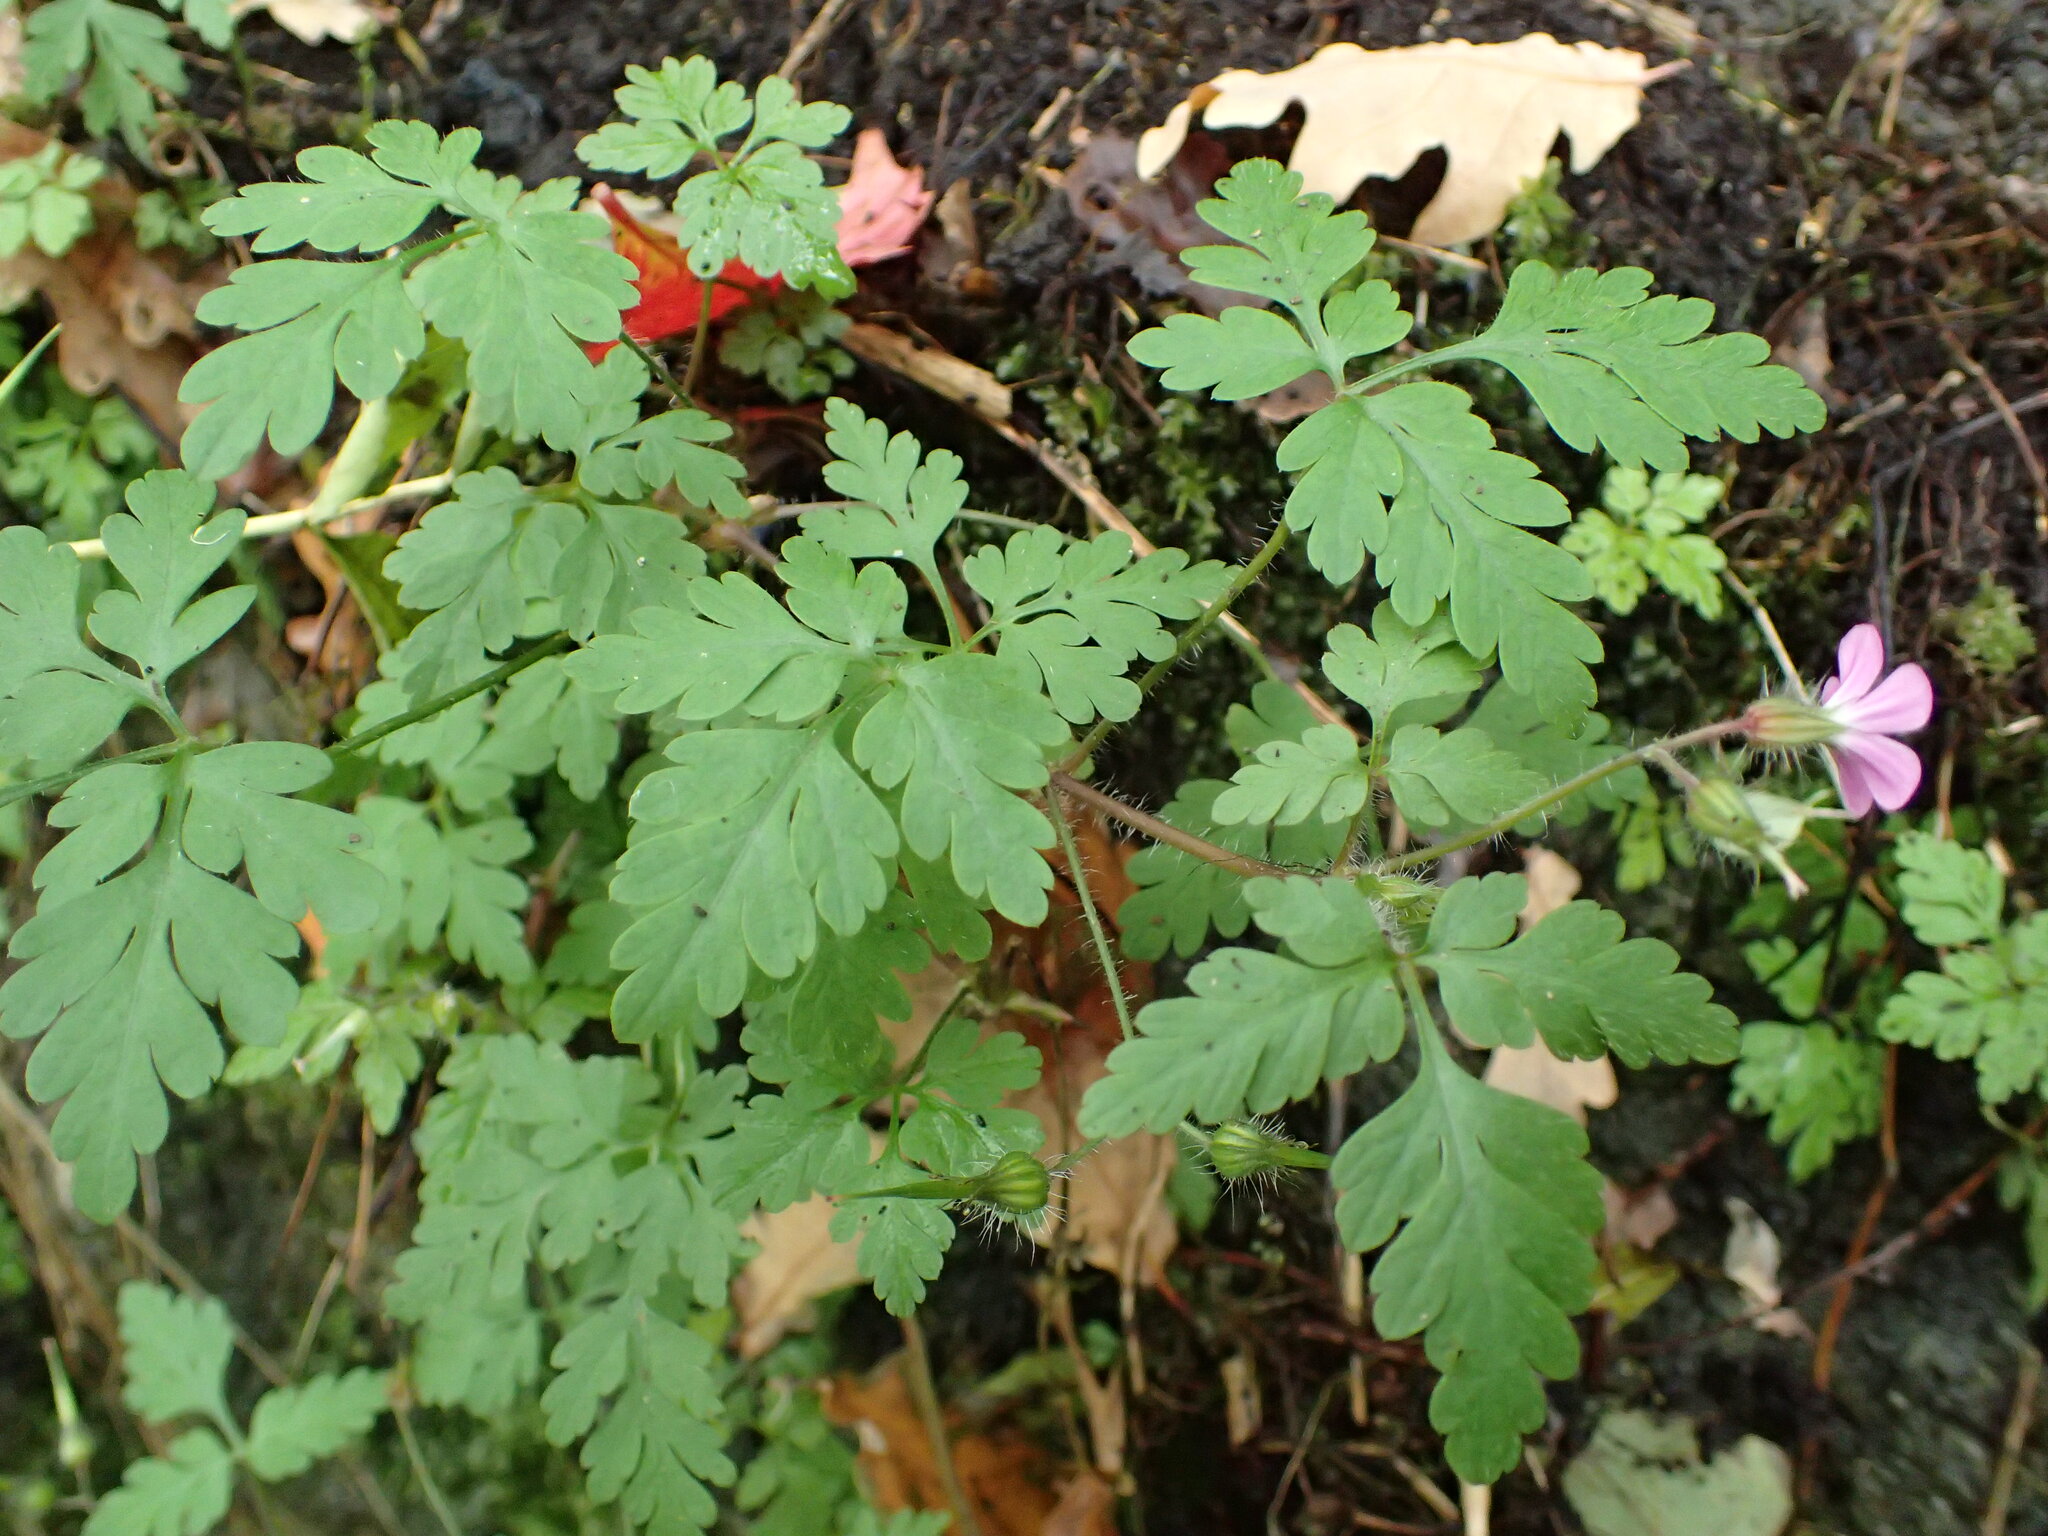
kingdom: Plantae
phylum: Tracheophyta
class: Magnoliopsida
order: Geraniales
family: Geraniaceae
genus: Geranium
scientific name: Geranium robertianum
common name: Herb-robert
